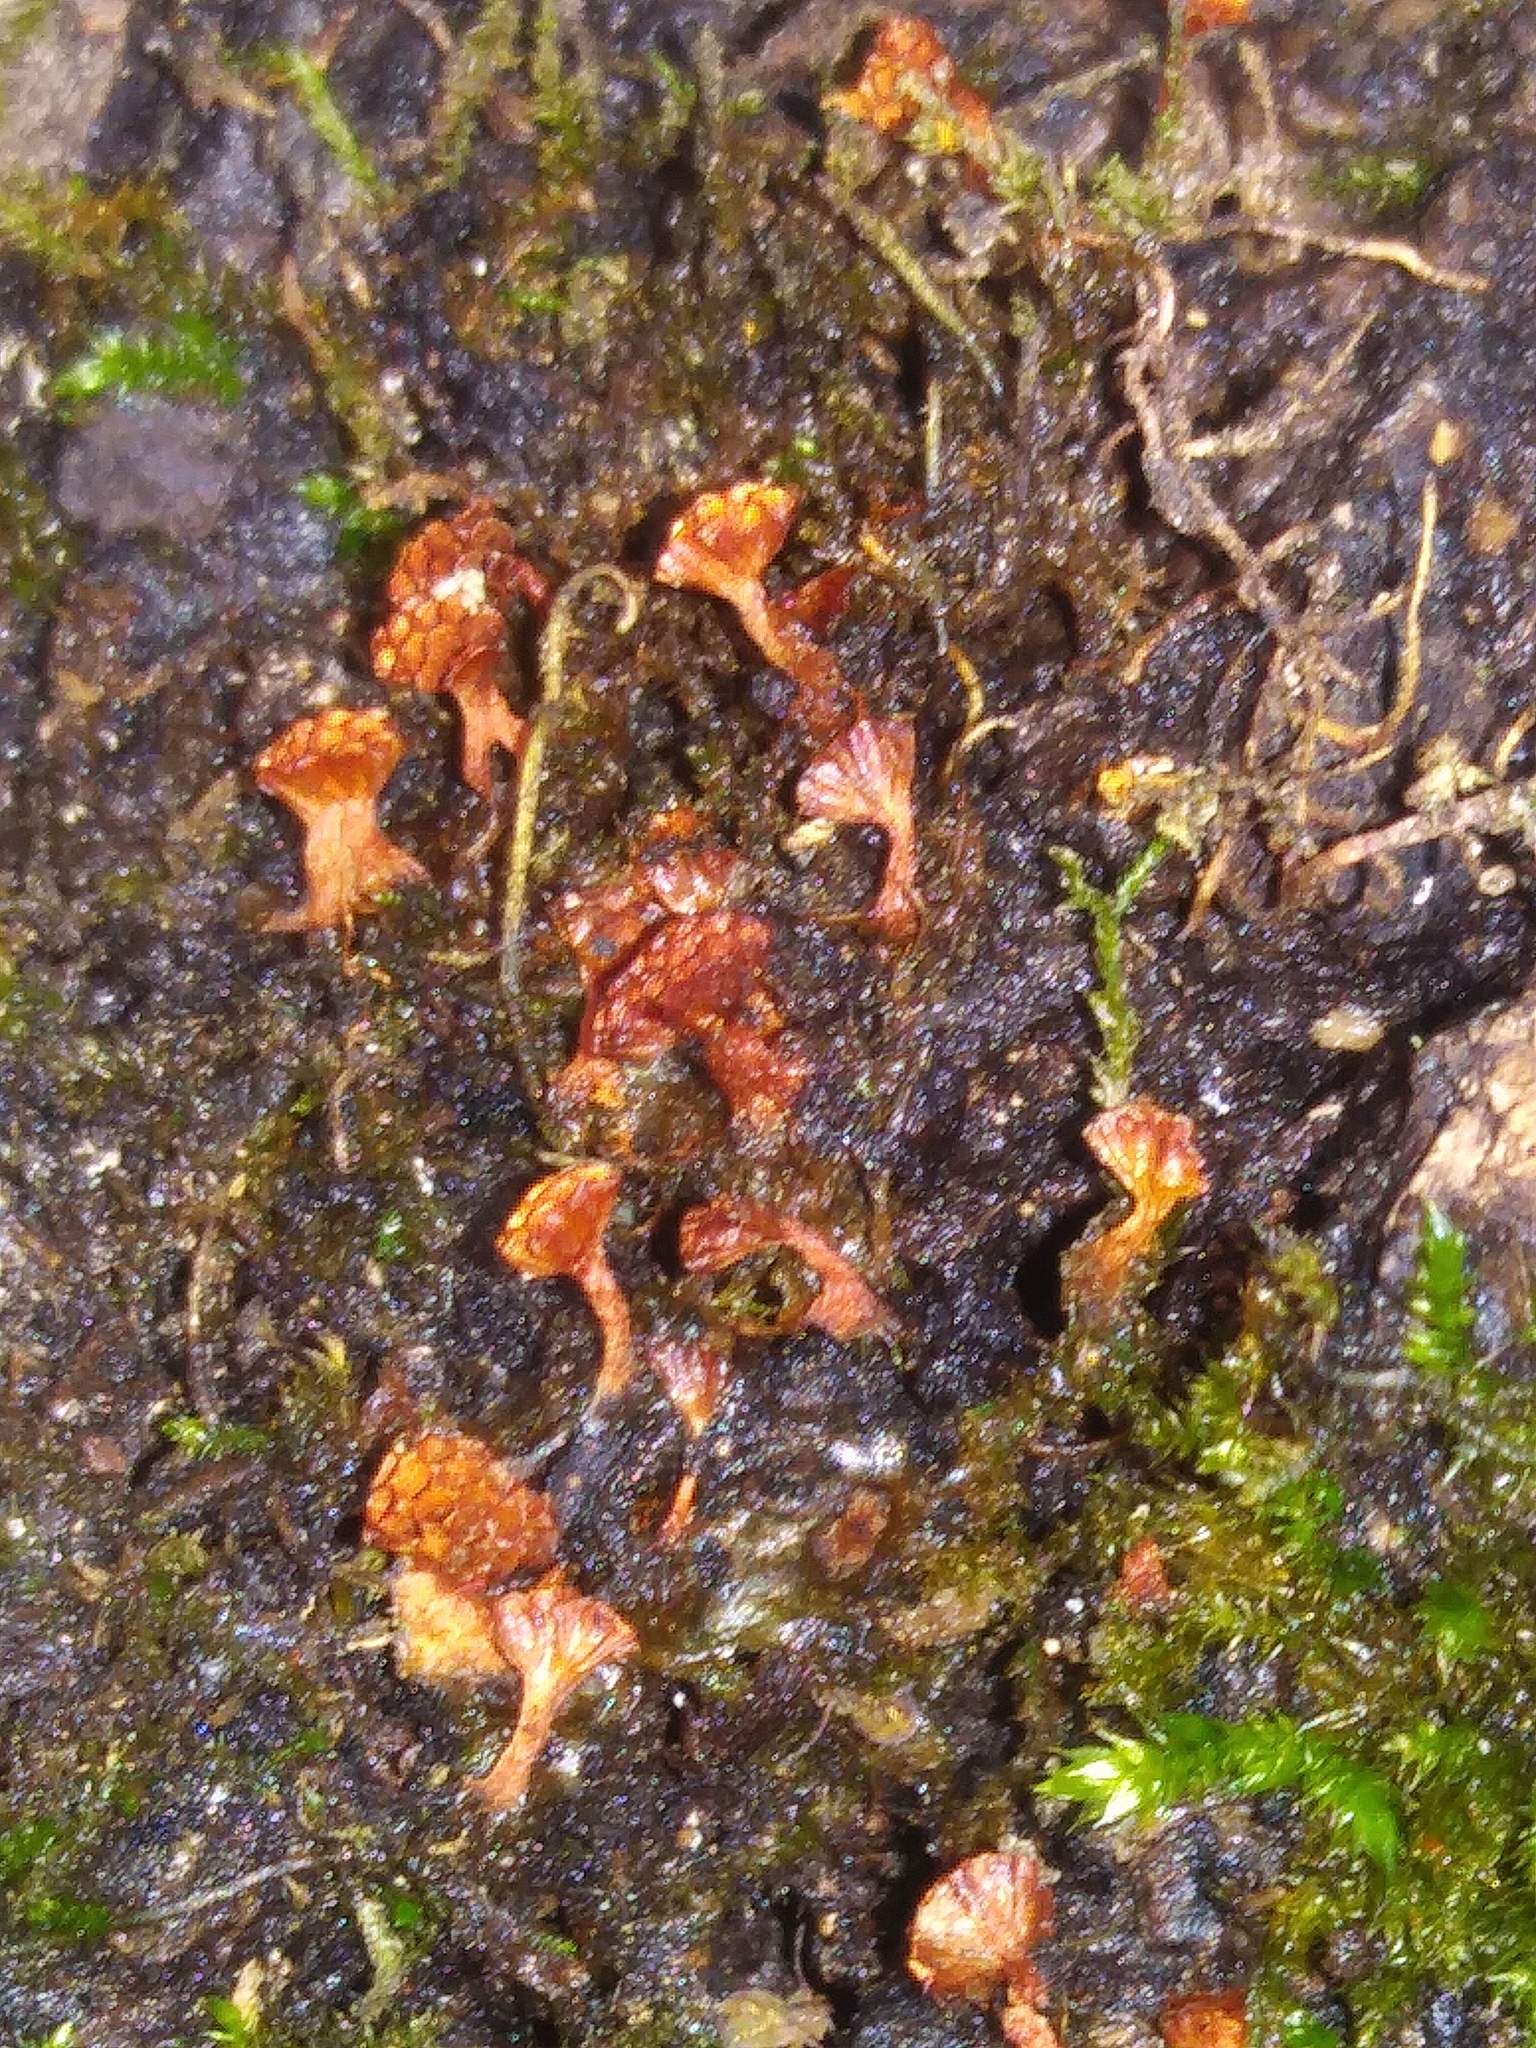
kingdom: Protozoa
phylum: Mycetozoa
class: Myxomycetes
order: Trichiales
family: Trichiaceae
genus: Metatrichia
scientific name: Metatrichia vesparia
